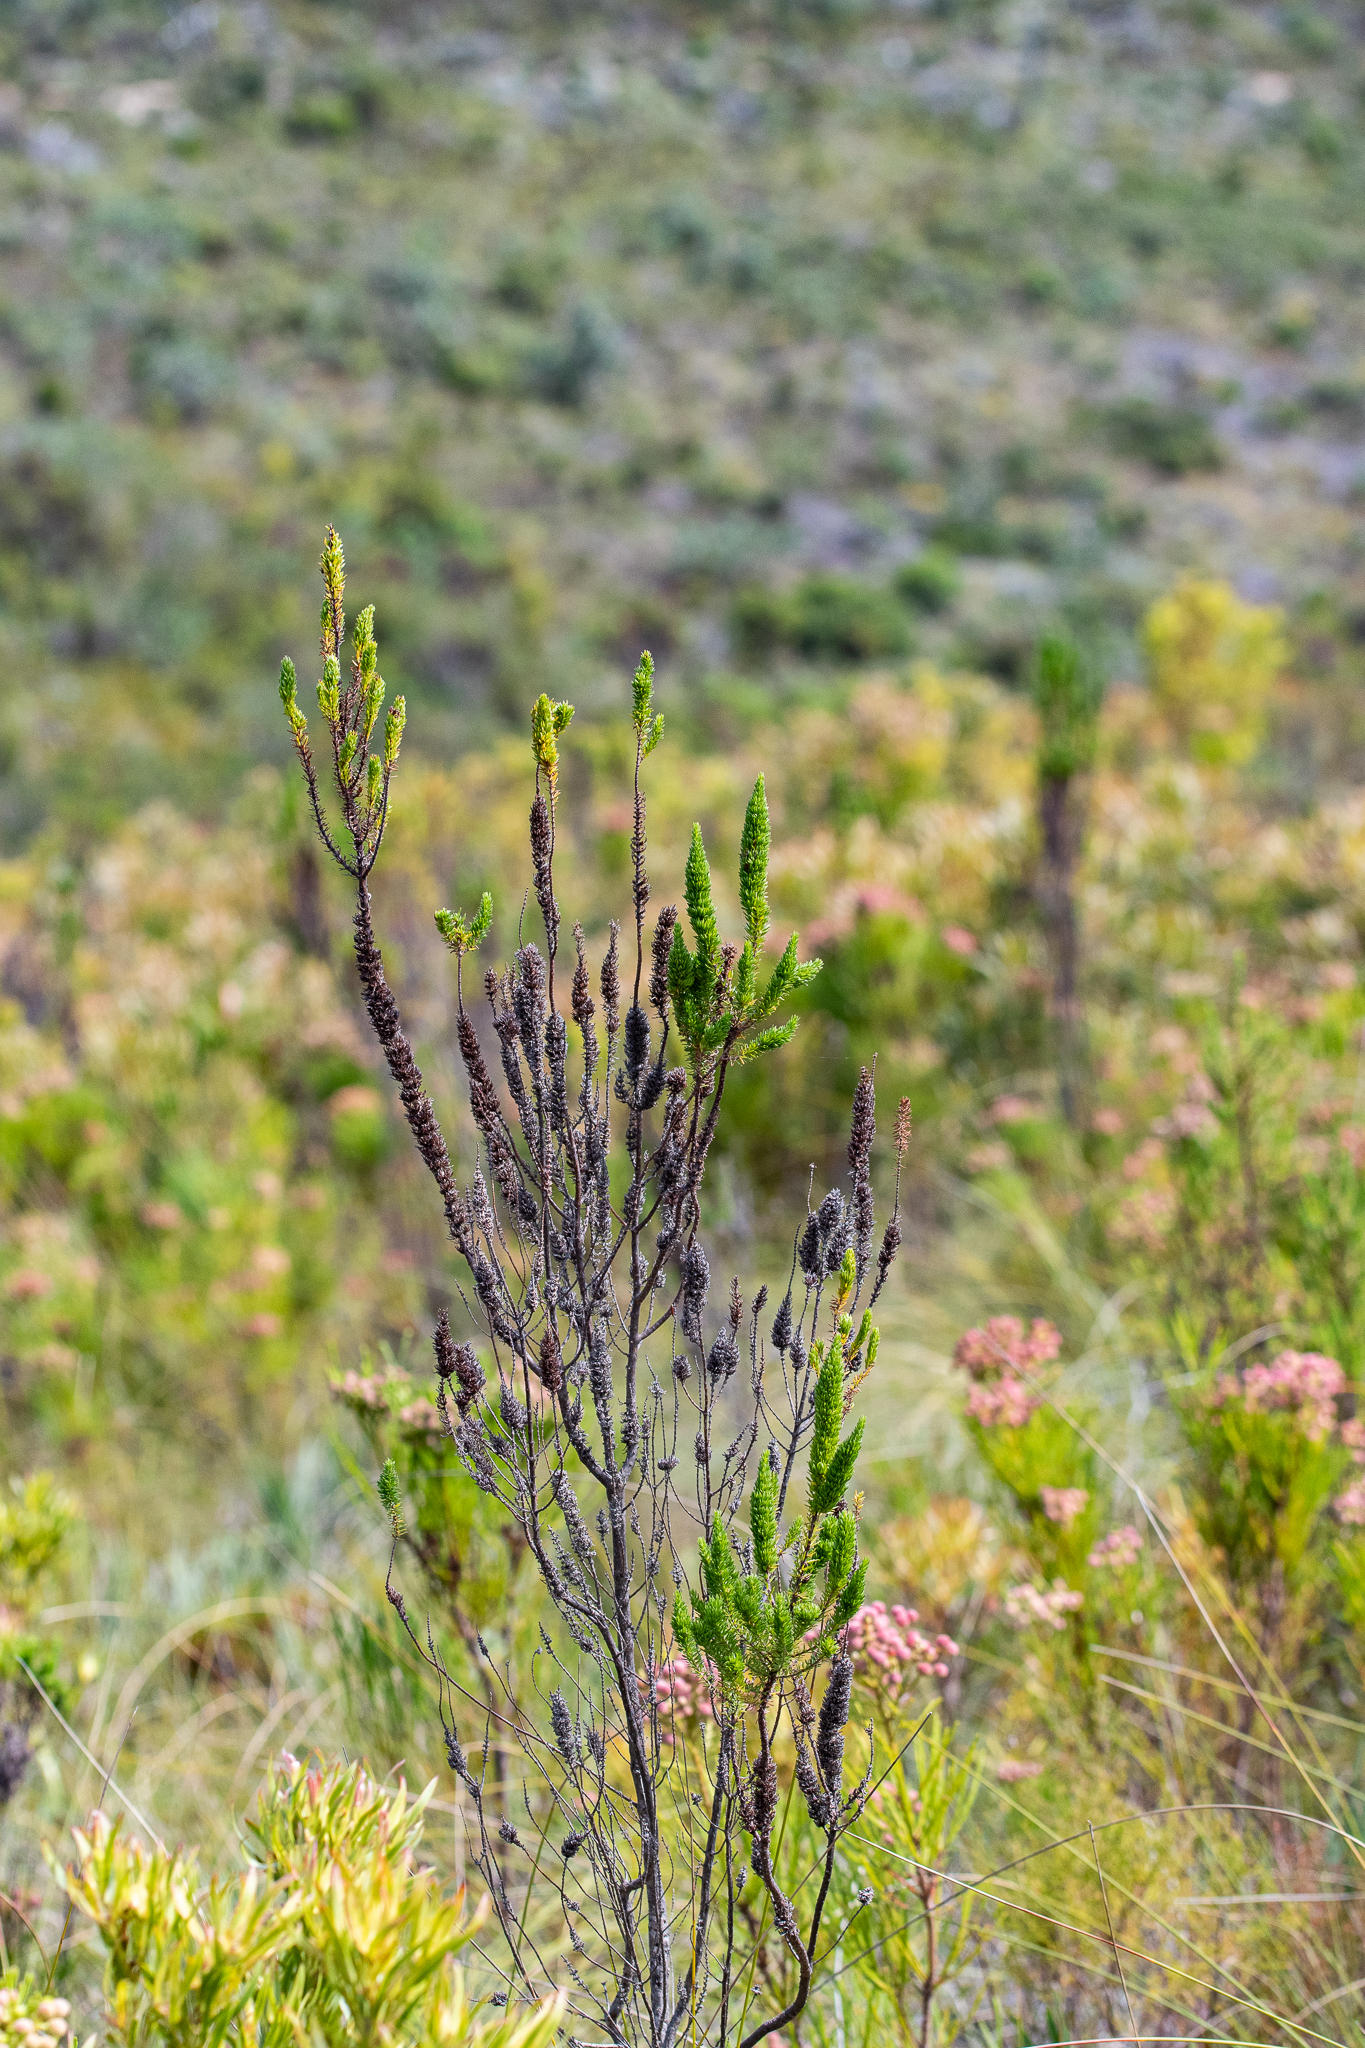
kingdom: Plantae
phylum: Tracheophyta
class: Magnoliopsida
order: Gentianales
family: Rubiaceae
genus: Anthospermum
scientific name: Anthospermum aethiopicum
